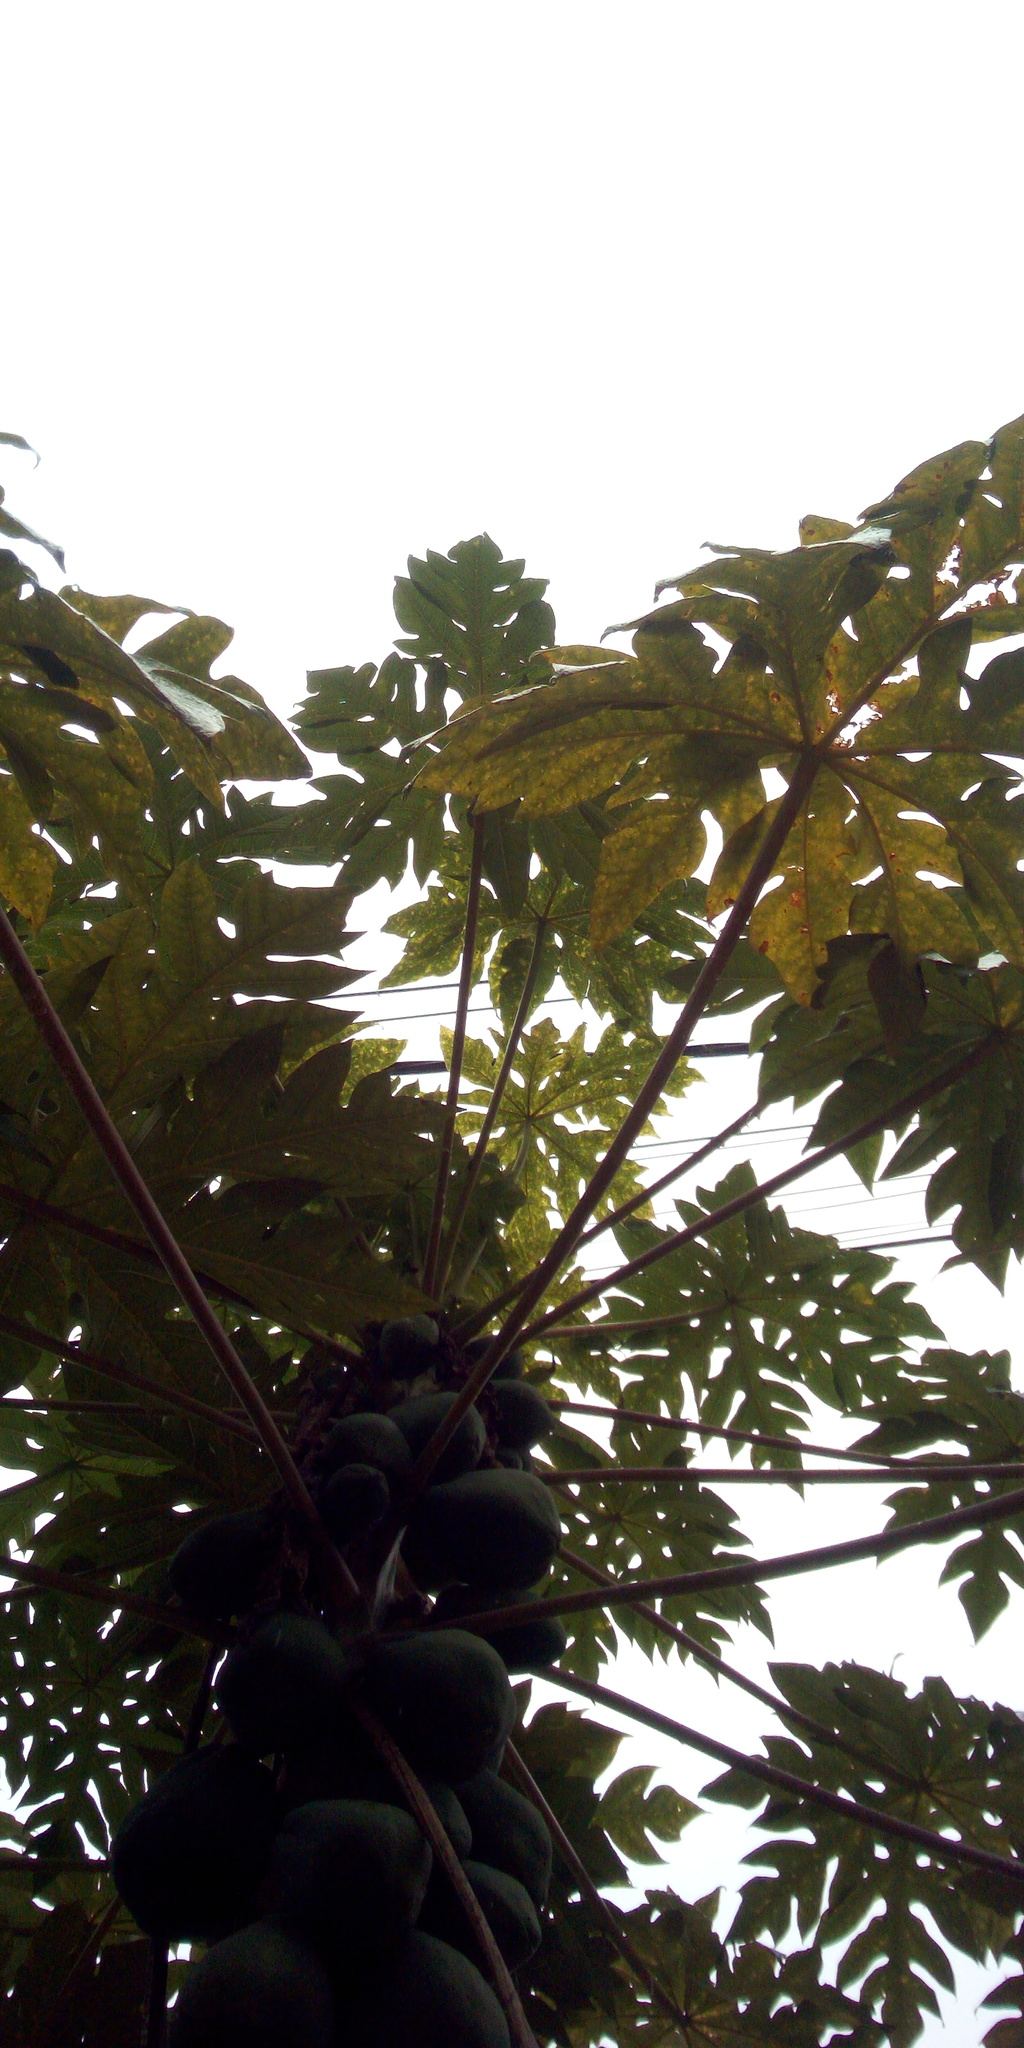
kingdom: Plantae
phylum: Tracheophyta
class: Magnoliopsida
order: Brassicales
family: Caricaceae
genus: Carica
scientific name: Carica papaya
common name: Papaya
